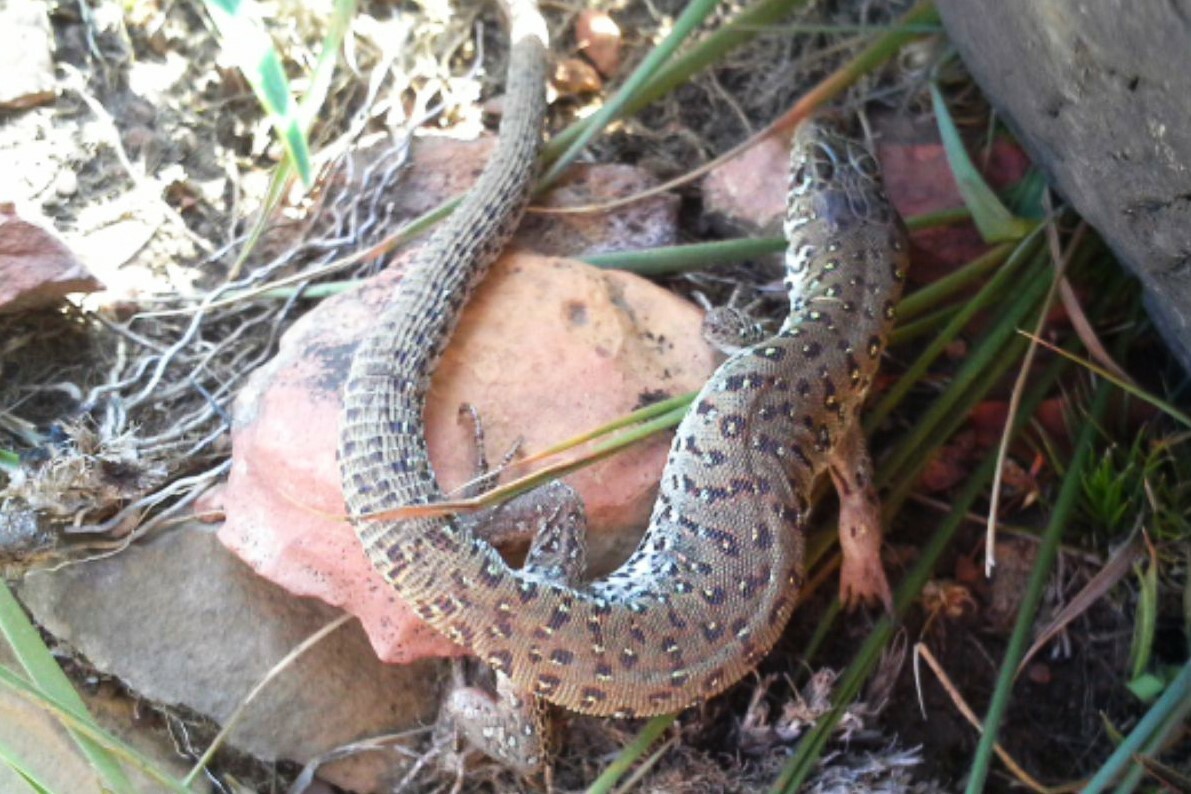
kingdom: Animalia
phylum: Chordata
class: Squamata
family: Lacertidae
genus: Nucras
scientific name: Nucras lalandii
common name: Delalande's sandveld lizard
